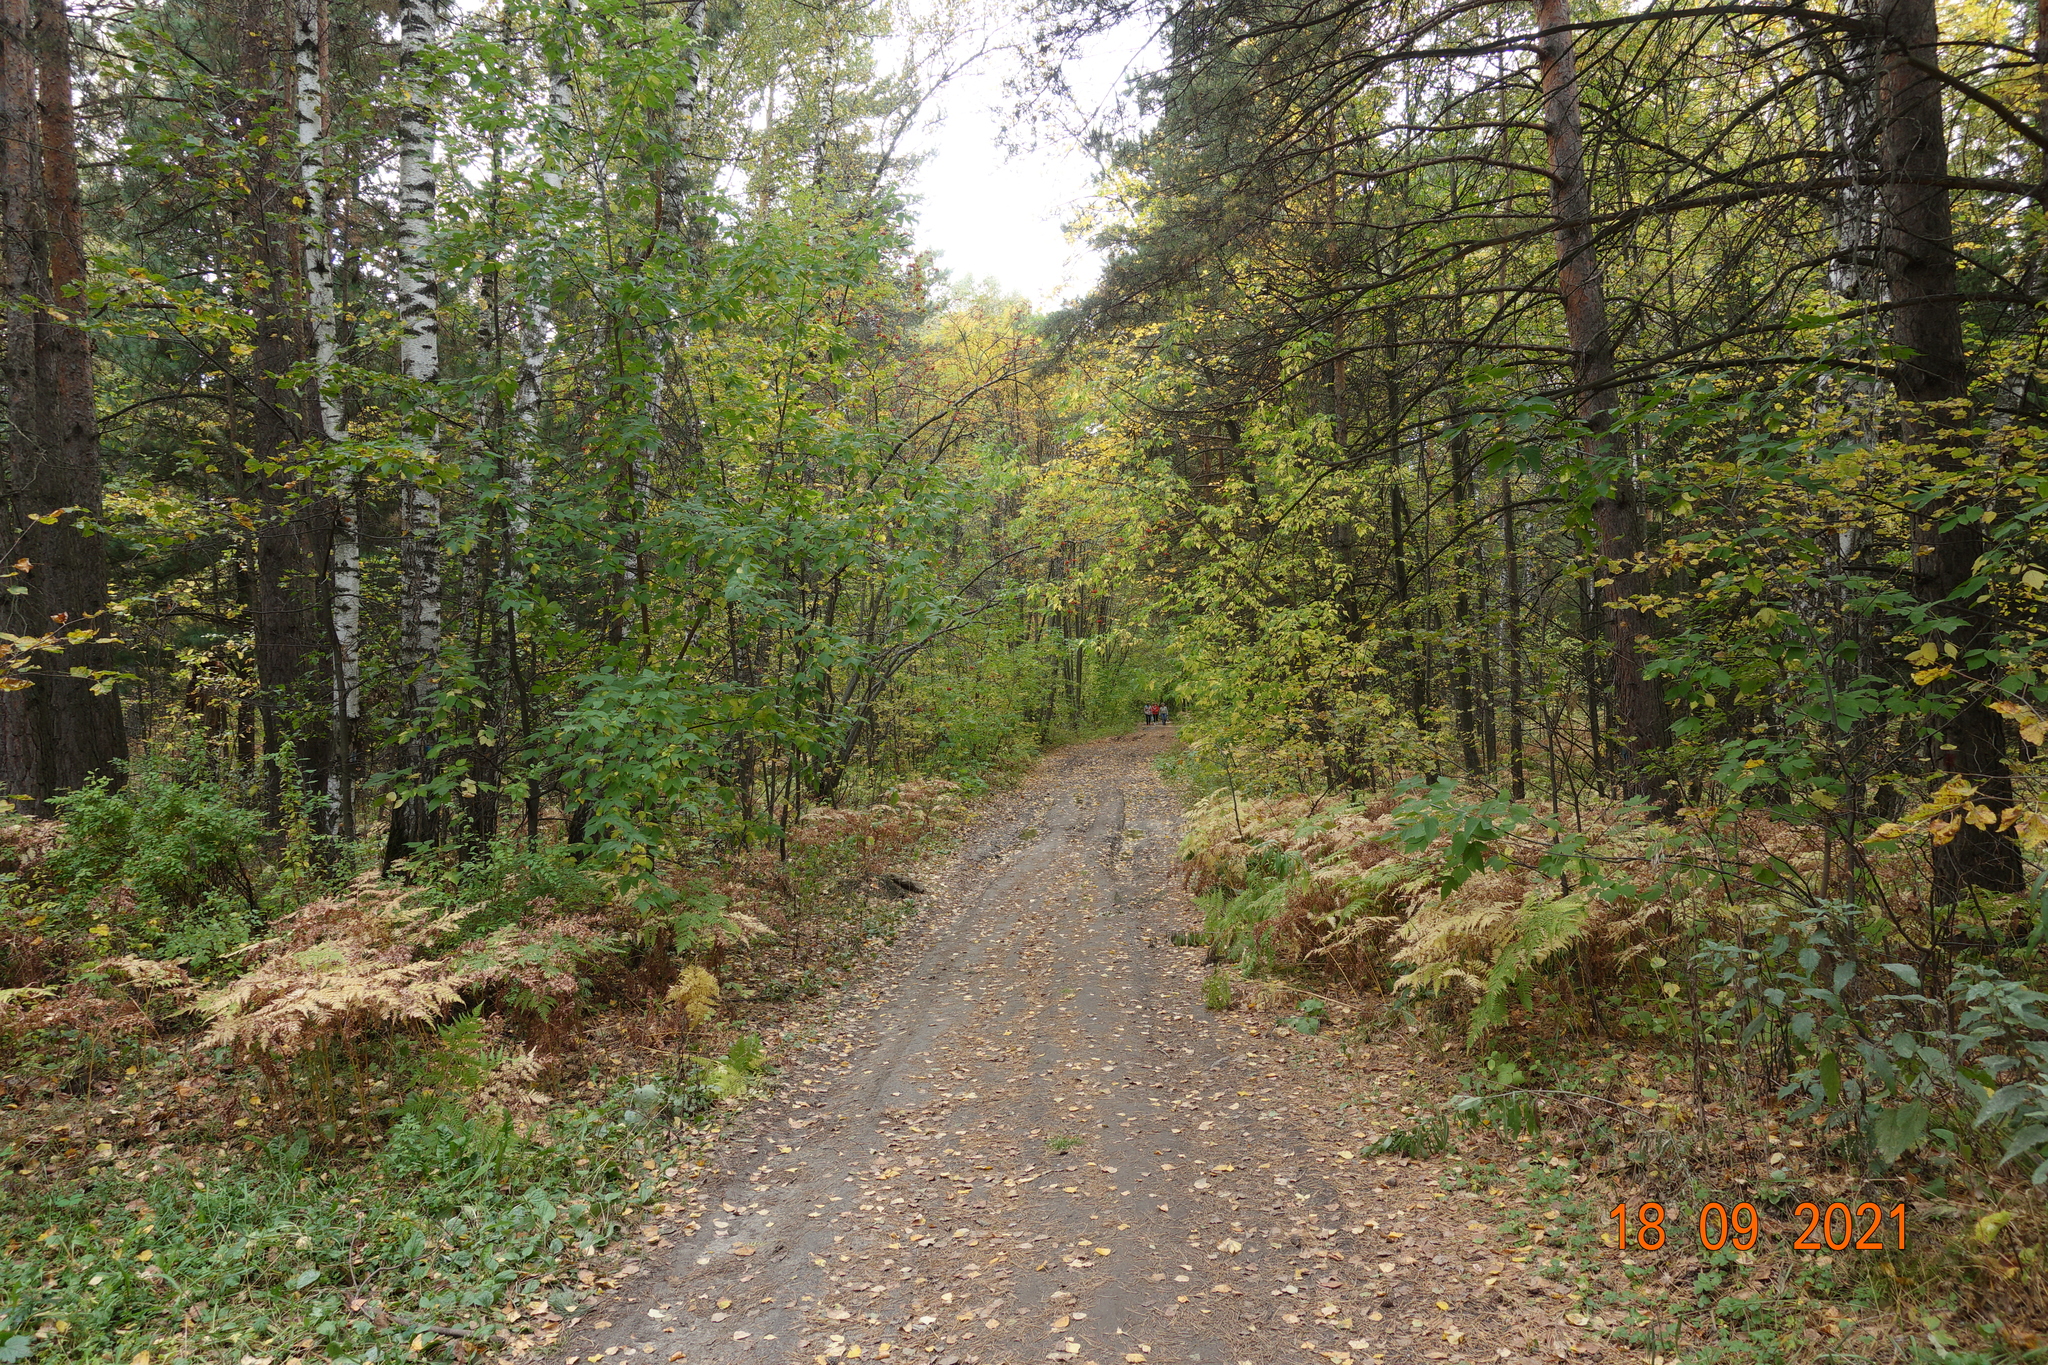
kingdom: Plantae
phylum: Tracheophyta
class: Pinopsida
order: Pinales
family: Pinaceae
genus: Pinus
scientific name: Pinus sylvestris
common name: Scots pine
